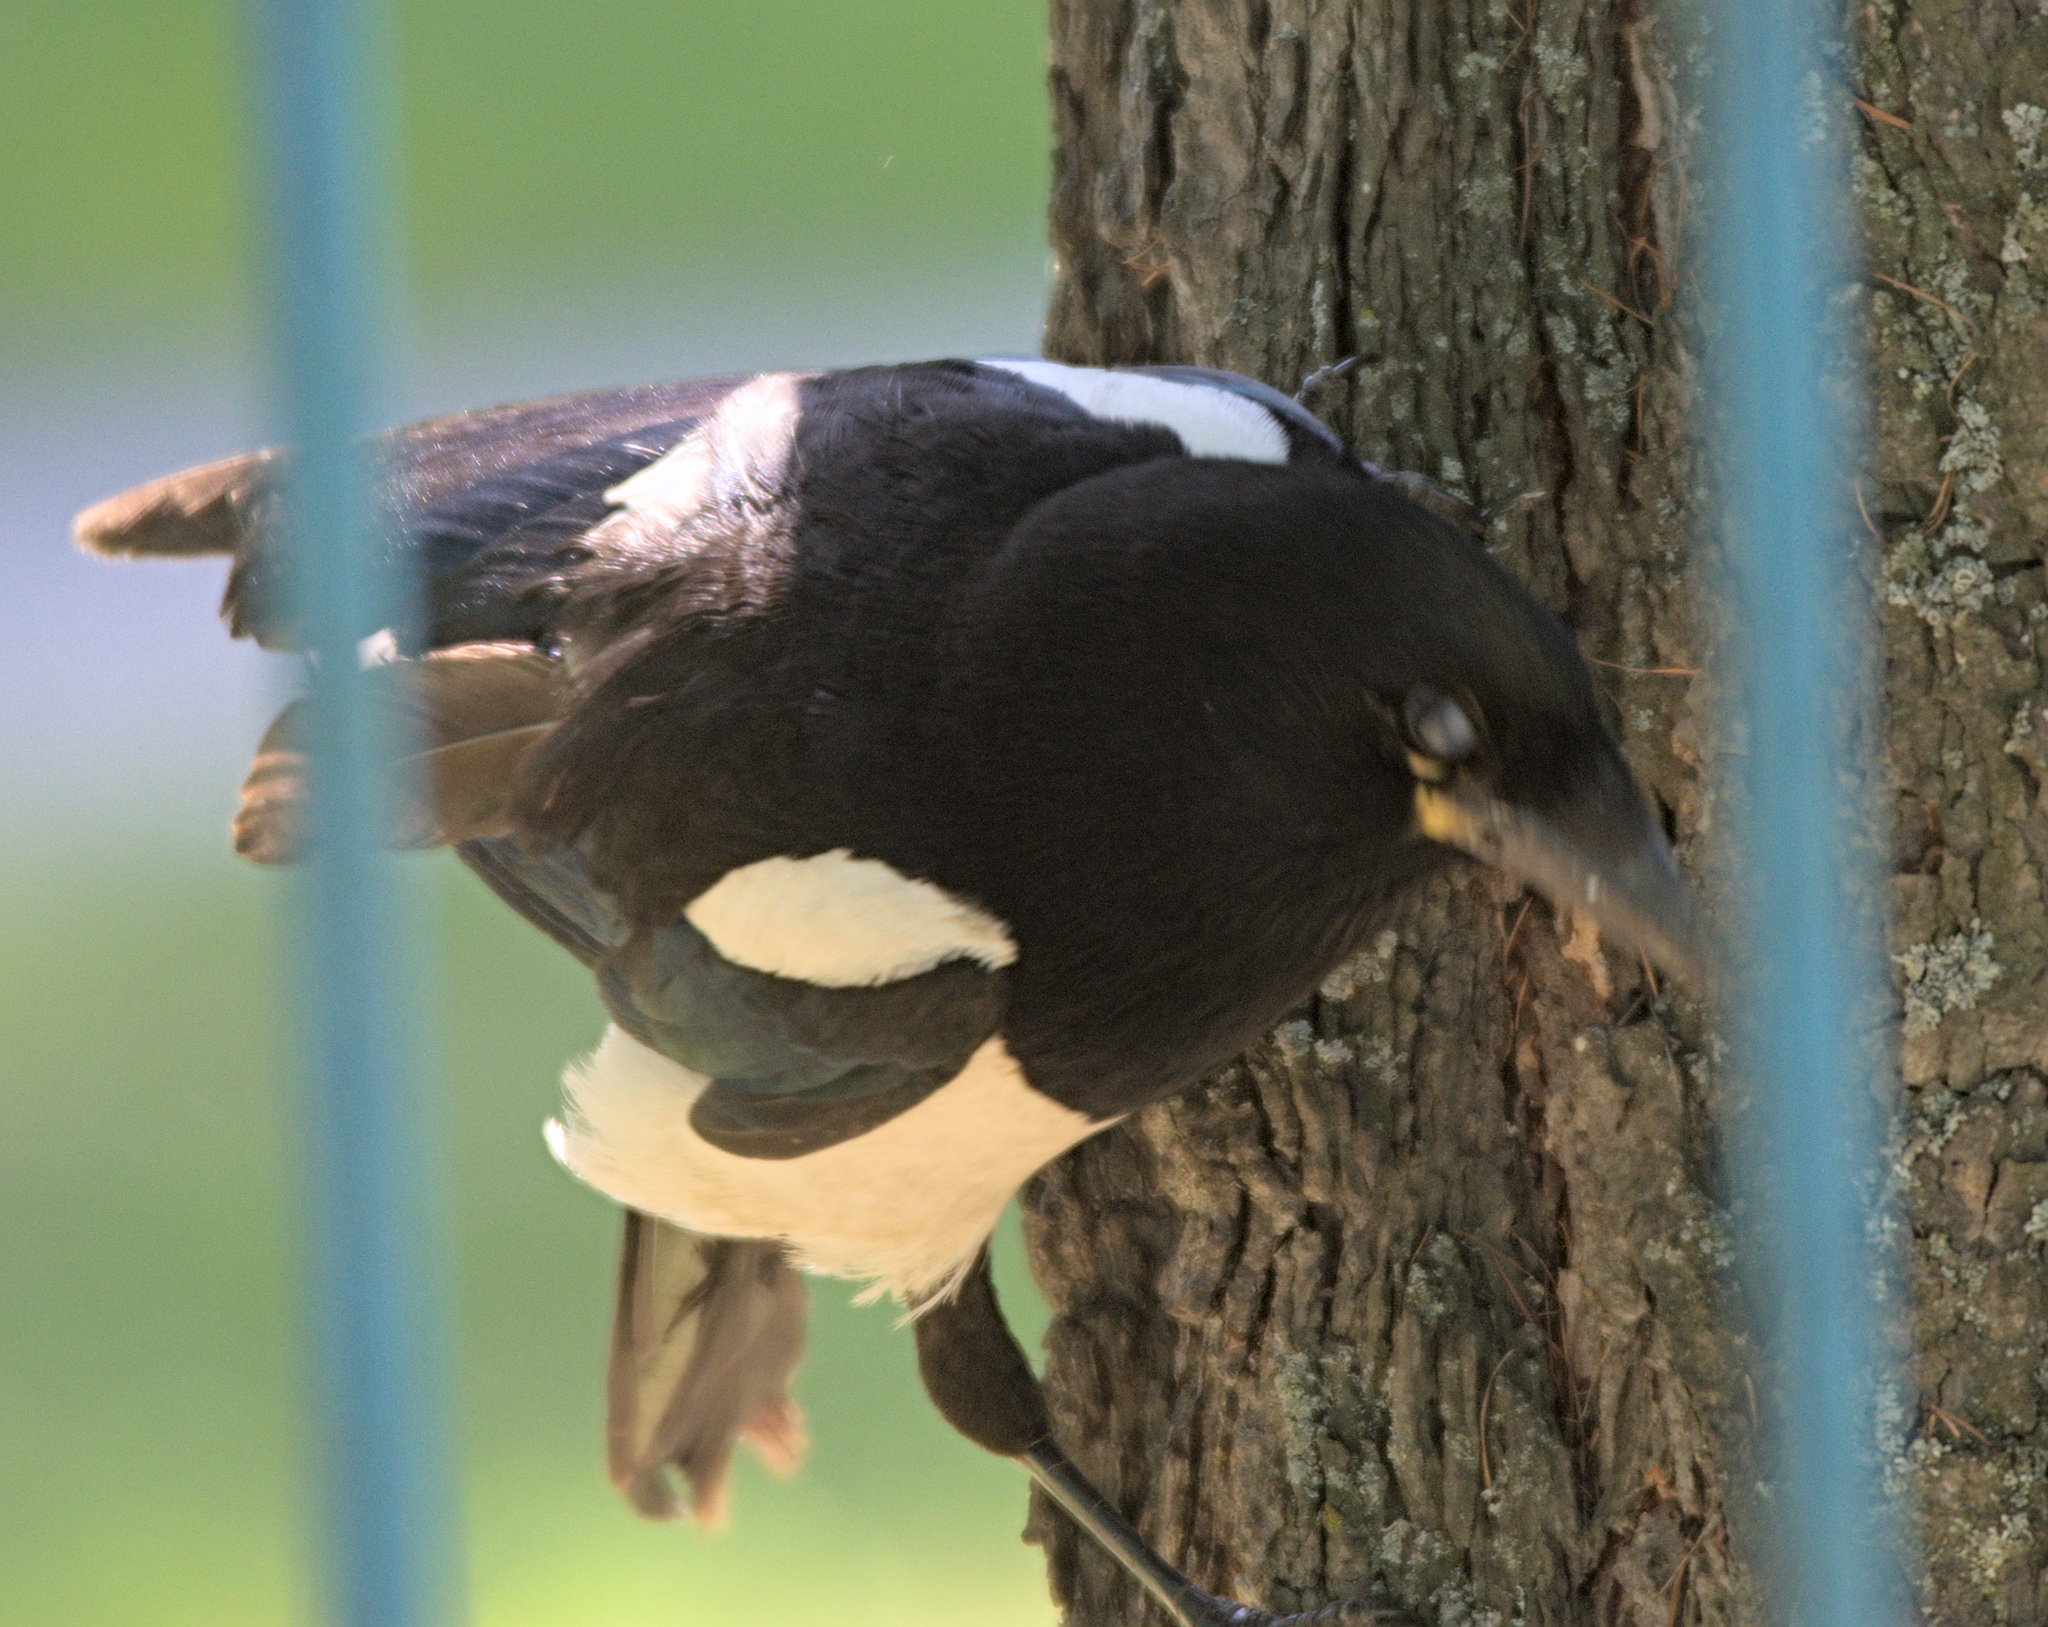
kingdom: Animalia
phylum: Chordata
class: Aves
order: Passeriformes
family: Corvidae
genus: Pica
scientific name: Pica pica
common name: Eurasian magpie
